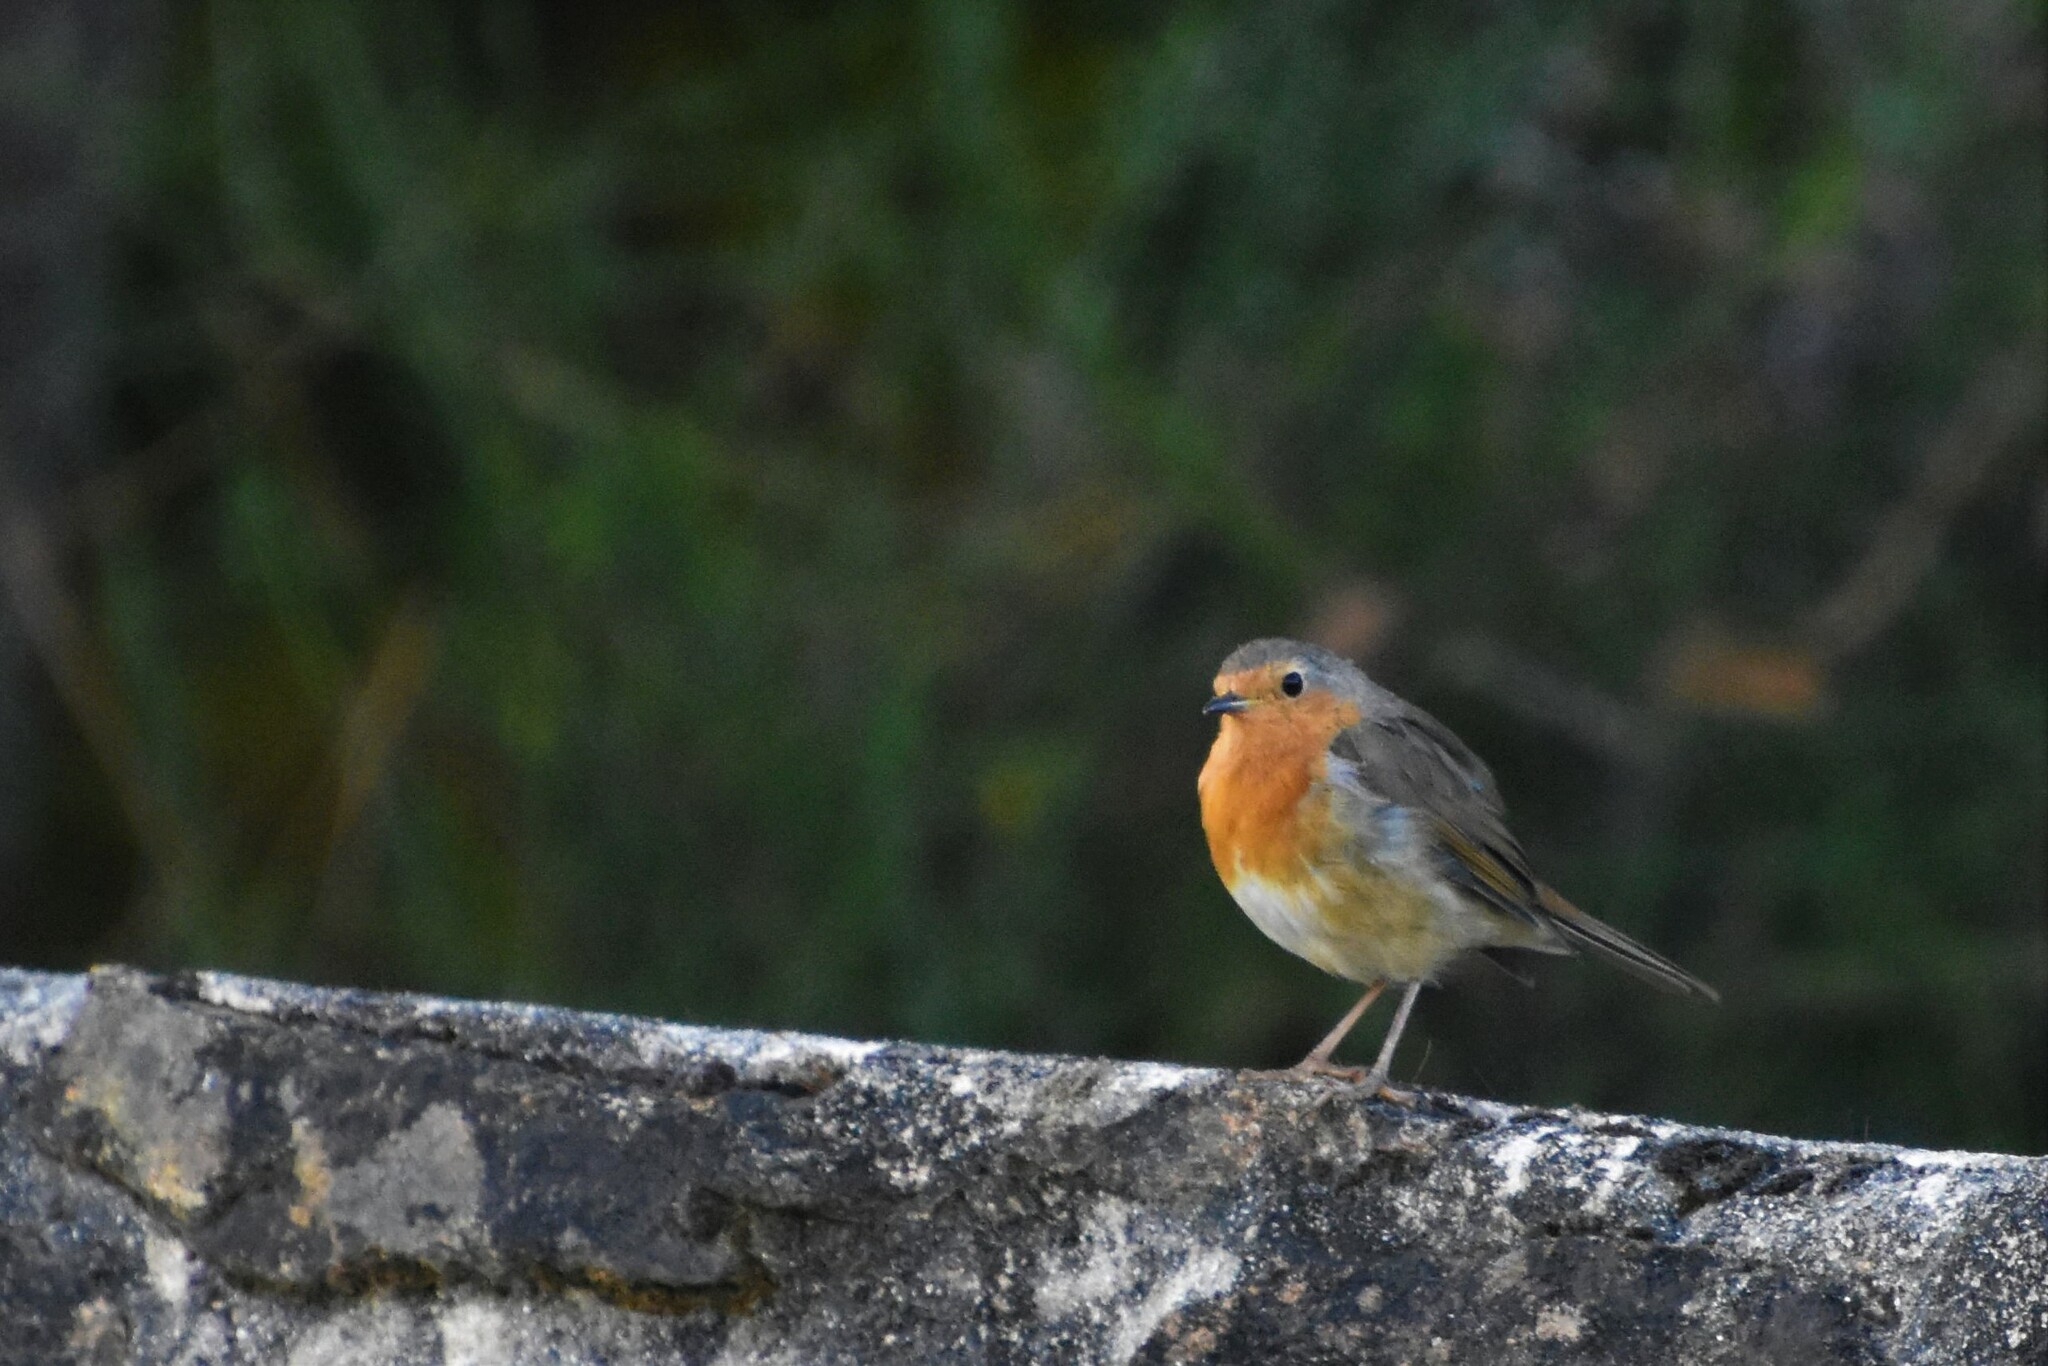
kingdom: Animalia
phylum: Chordata
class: Aves
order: Passeriformes
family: Muscicapidae
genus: Erithacus
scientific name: Erithacus rubecula
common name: European robin
